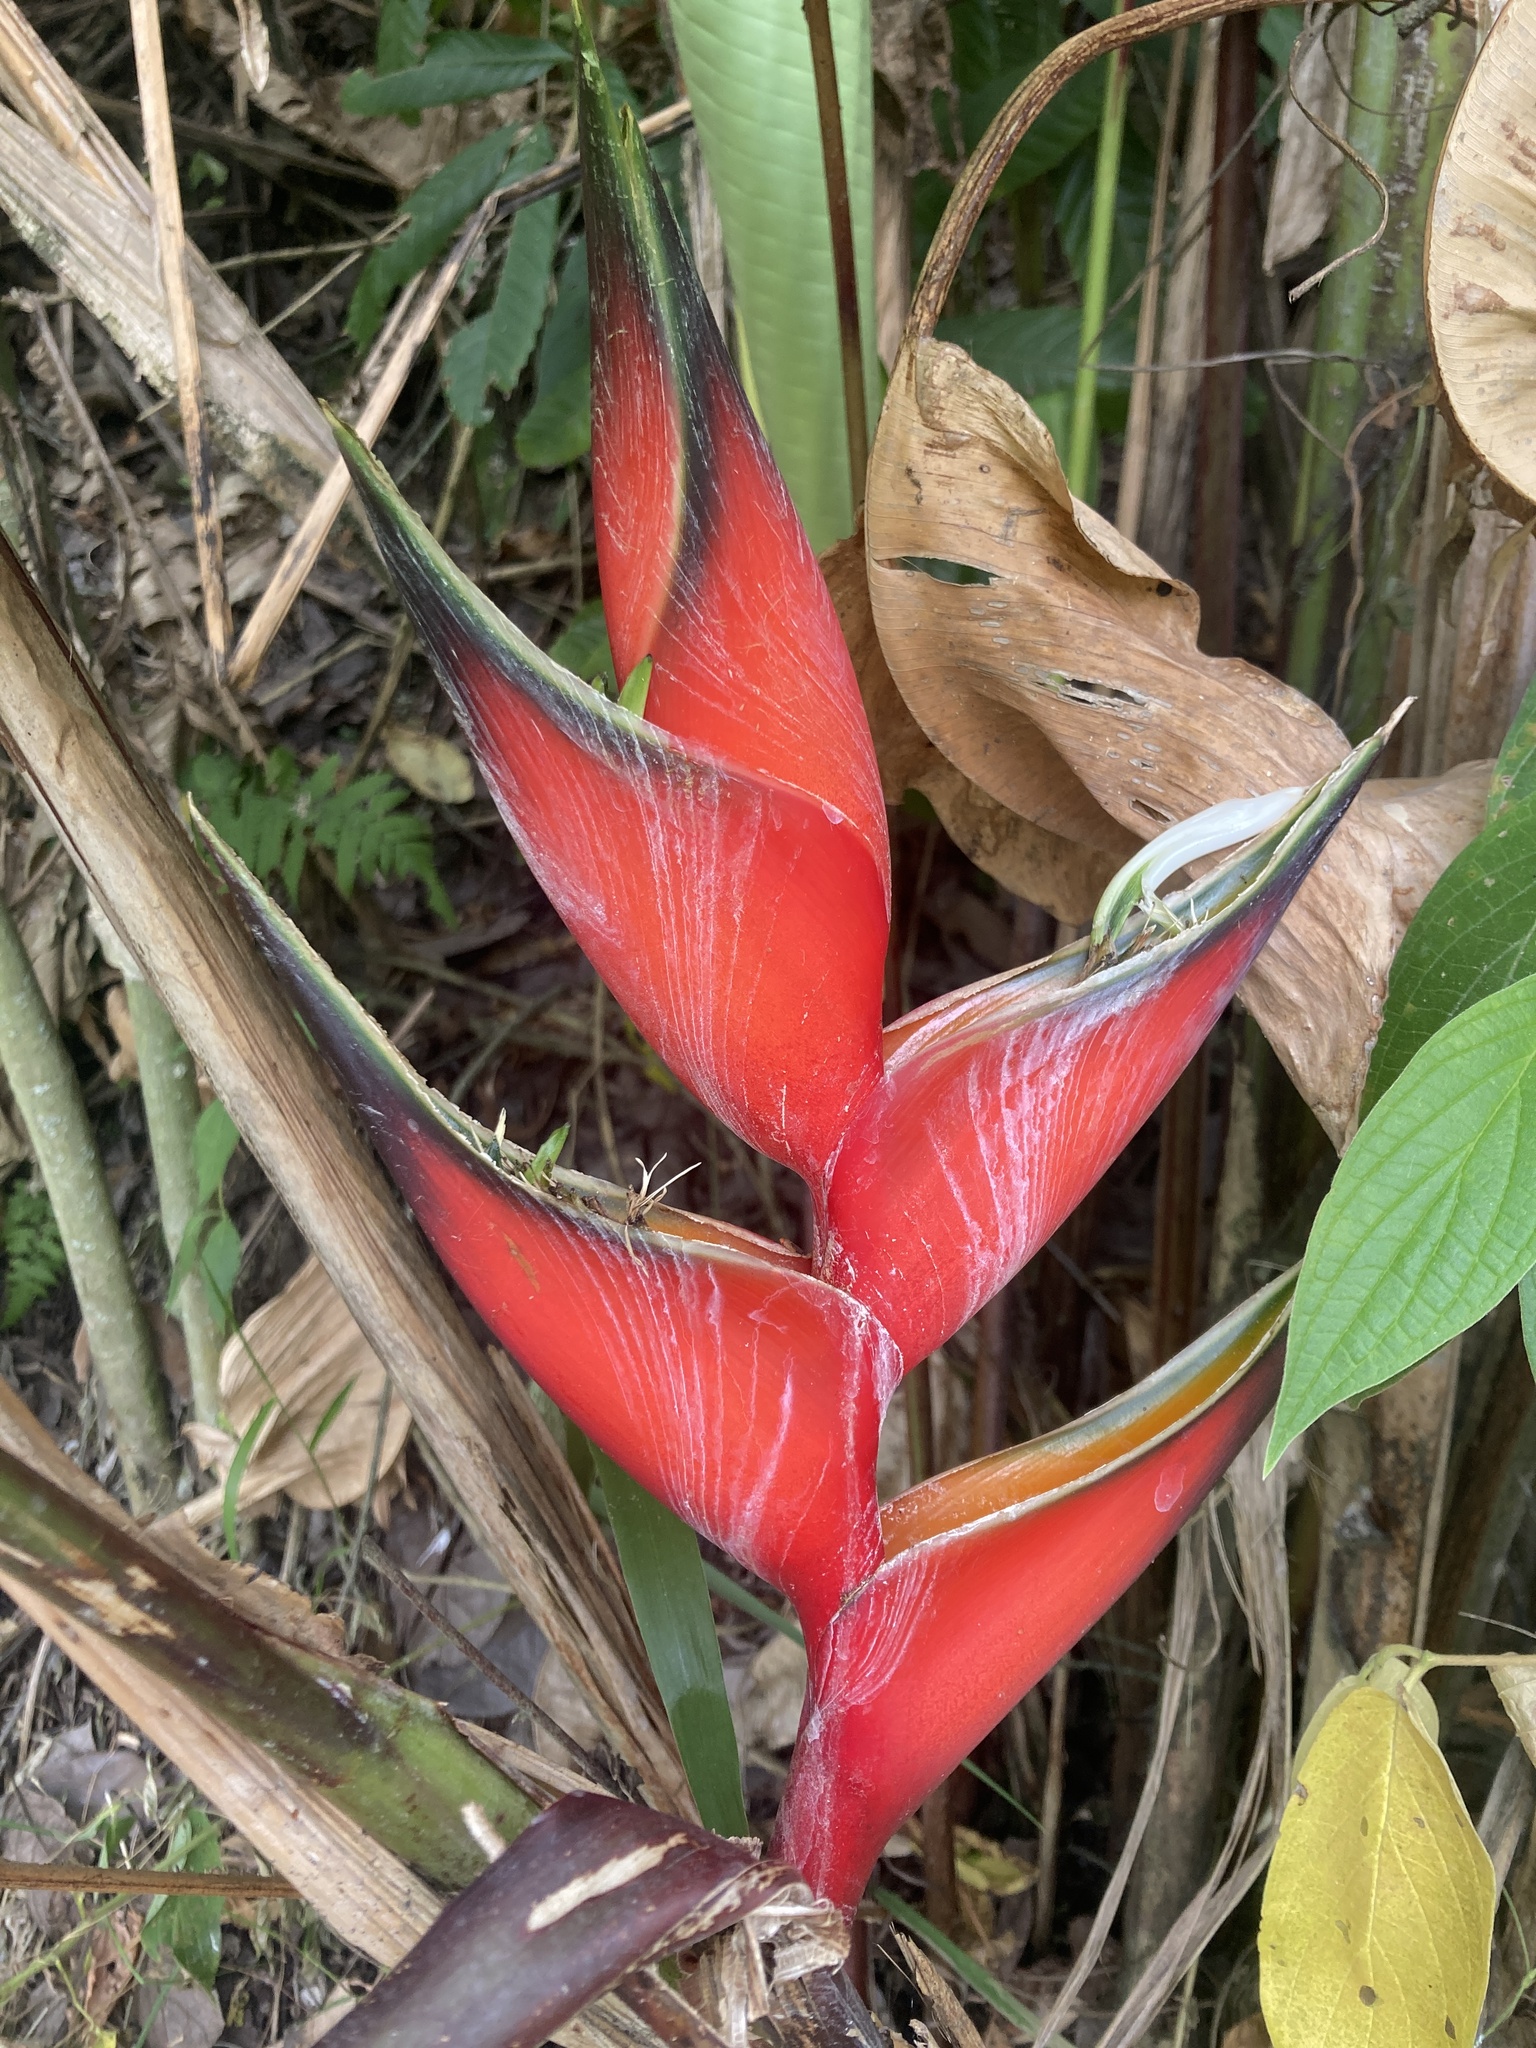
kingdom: Plantae
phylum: Tracheophyta
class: Liliopsida
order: Zingiberales
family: Heliconiaceae
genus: Heliconia
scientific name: Heliconia bihai
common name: Macaw flower
